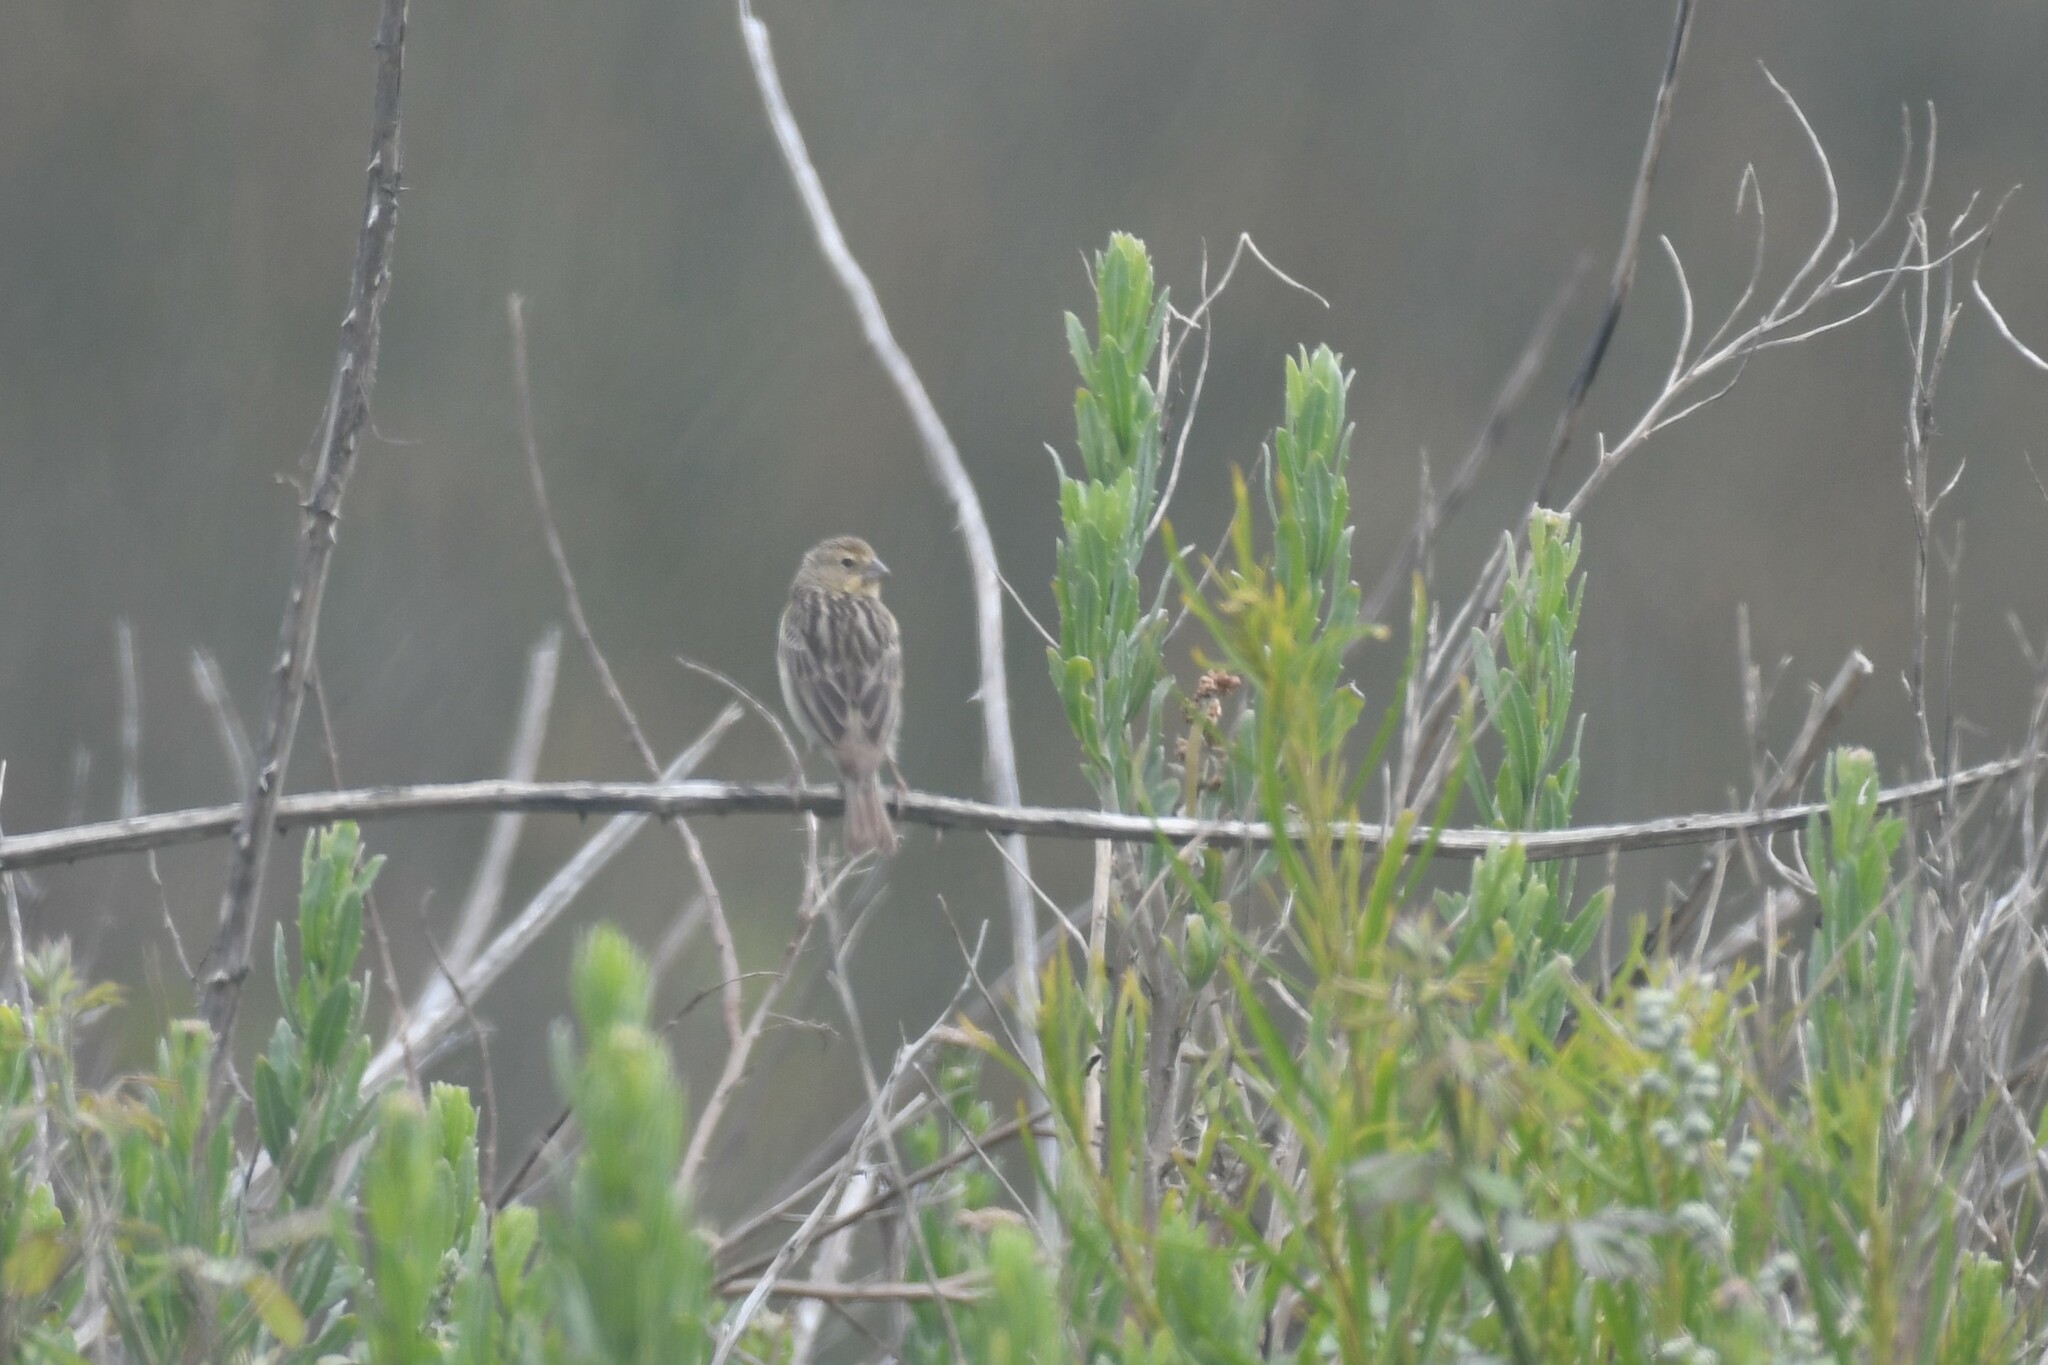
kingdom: Animalia
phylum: Chordata
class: Aves
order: Passeriformes
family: Thraupidae
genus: Sicalis
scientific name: Sicalis luteola
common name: Grassland yellow-finch
